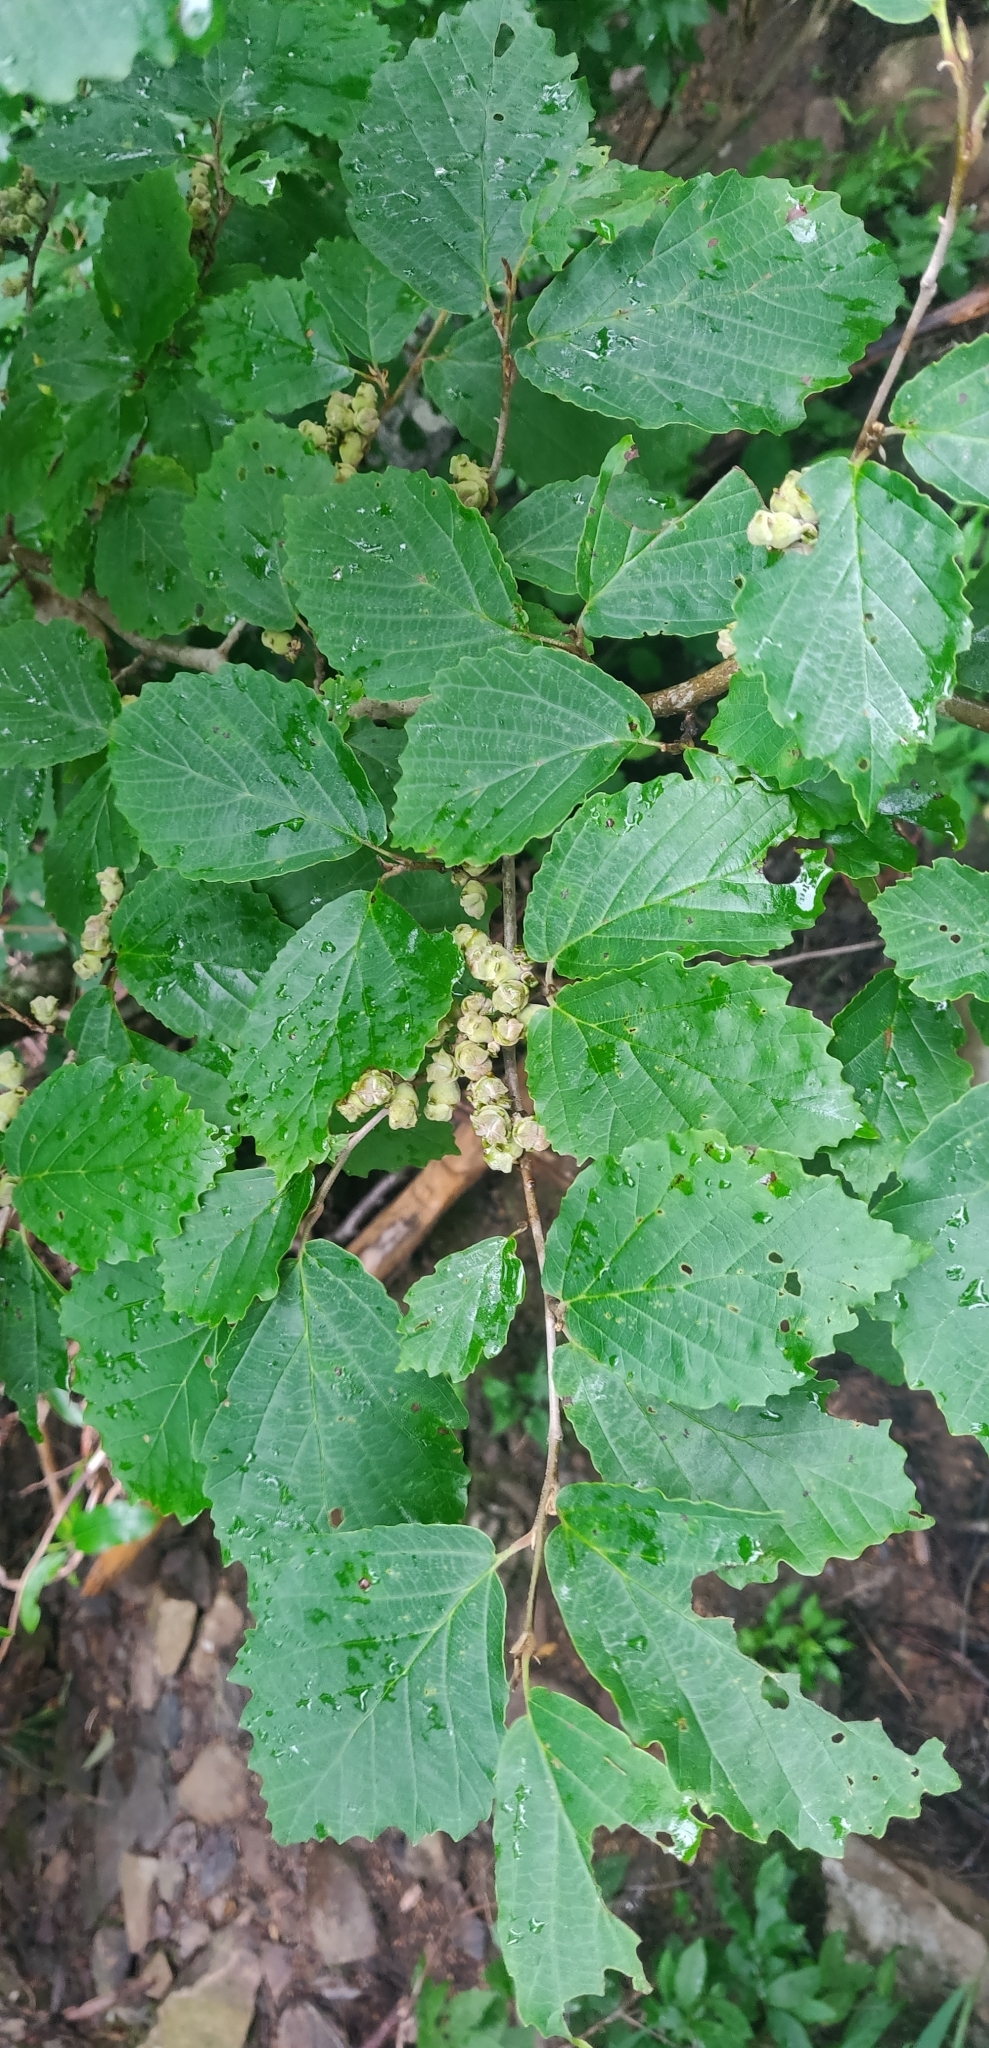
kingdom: Plantae
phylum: Tracheophyta
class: Magnoliopsida
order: Saxifragales
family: Hamamelidaceae
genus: Hamamelis
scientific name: Hamamelis virginiana
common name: Witch-hazel
